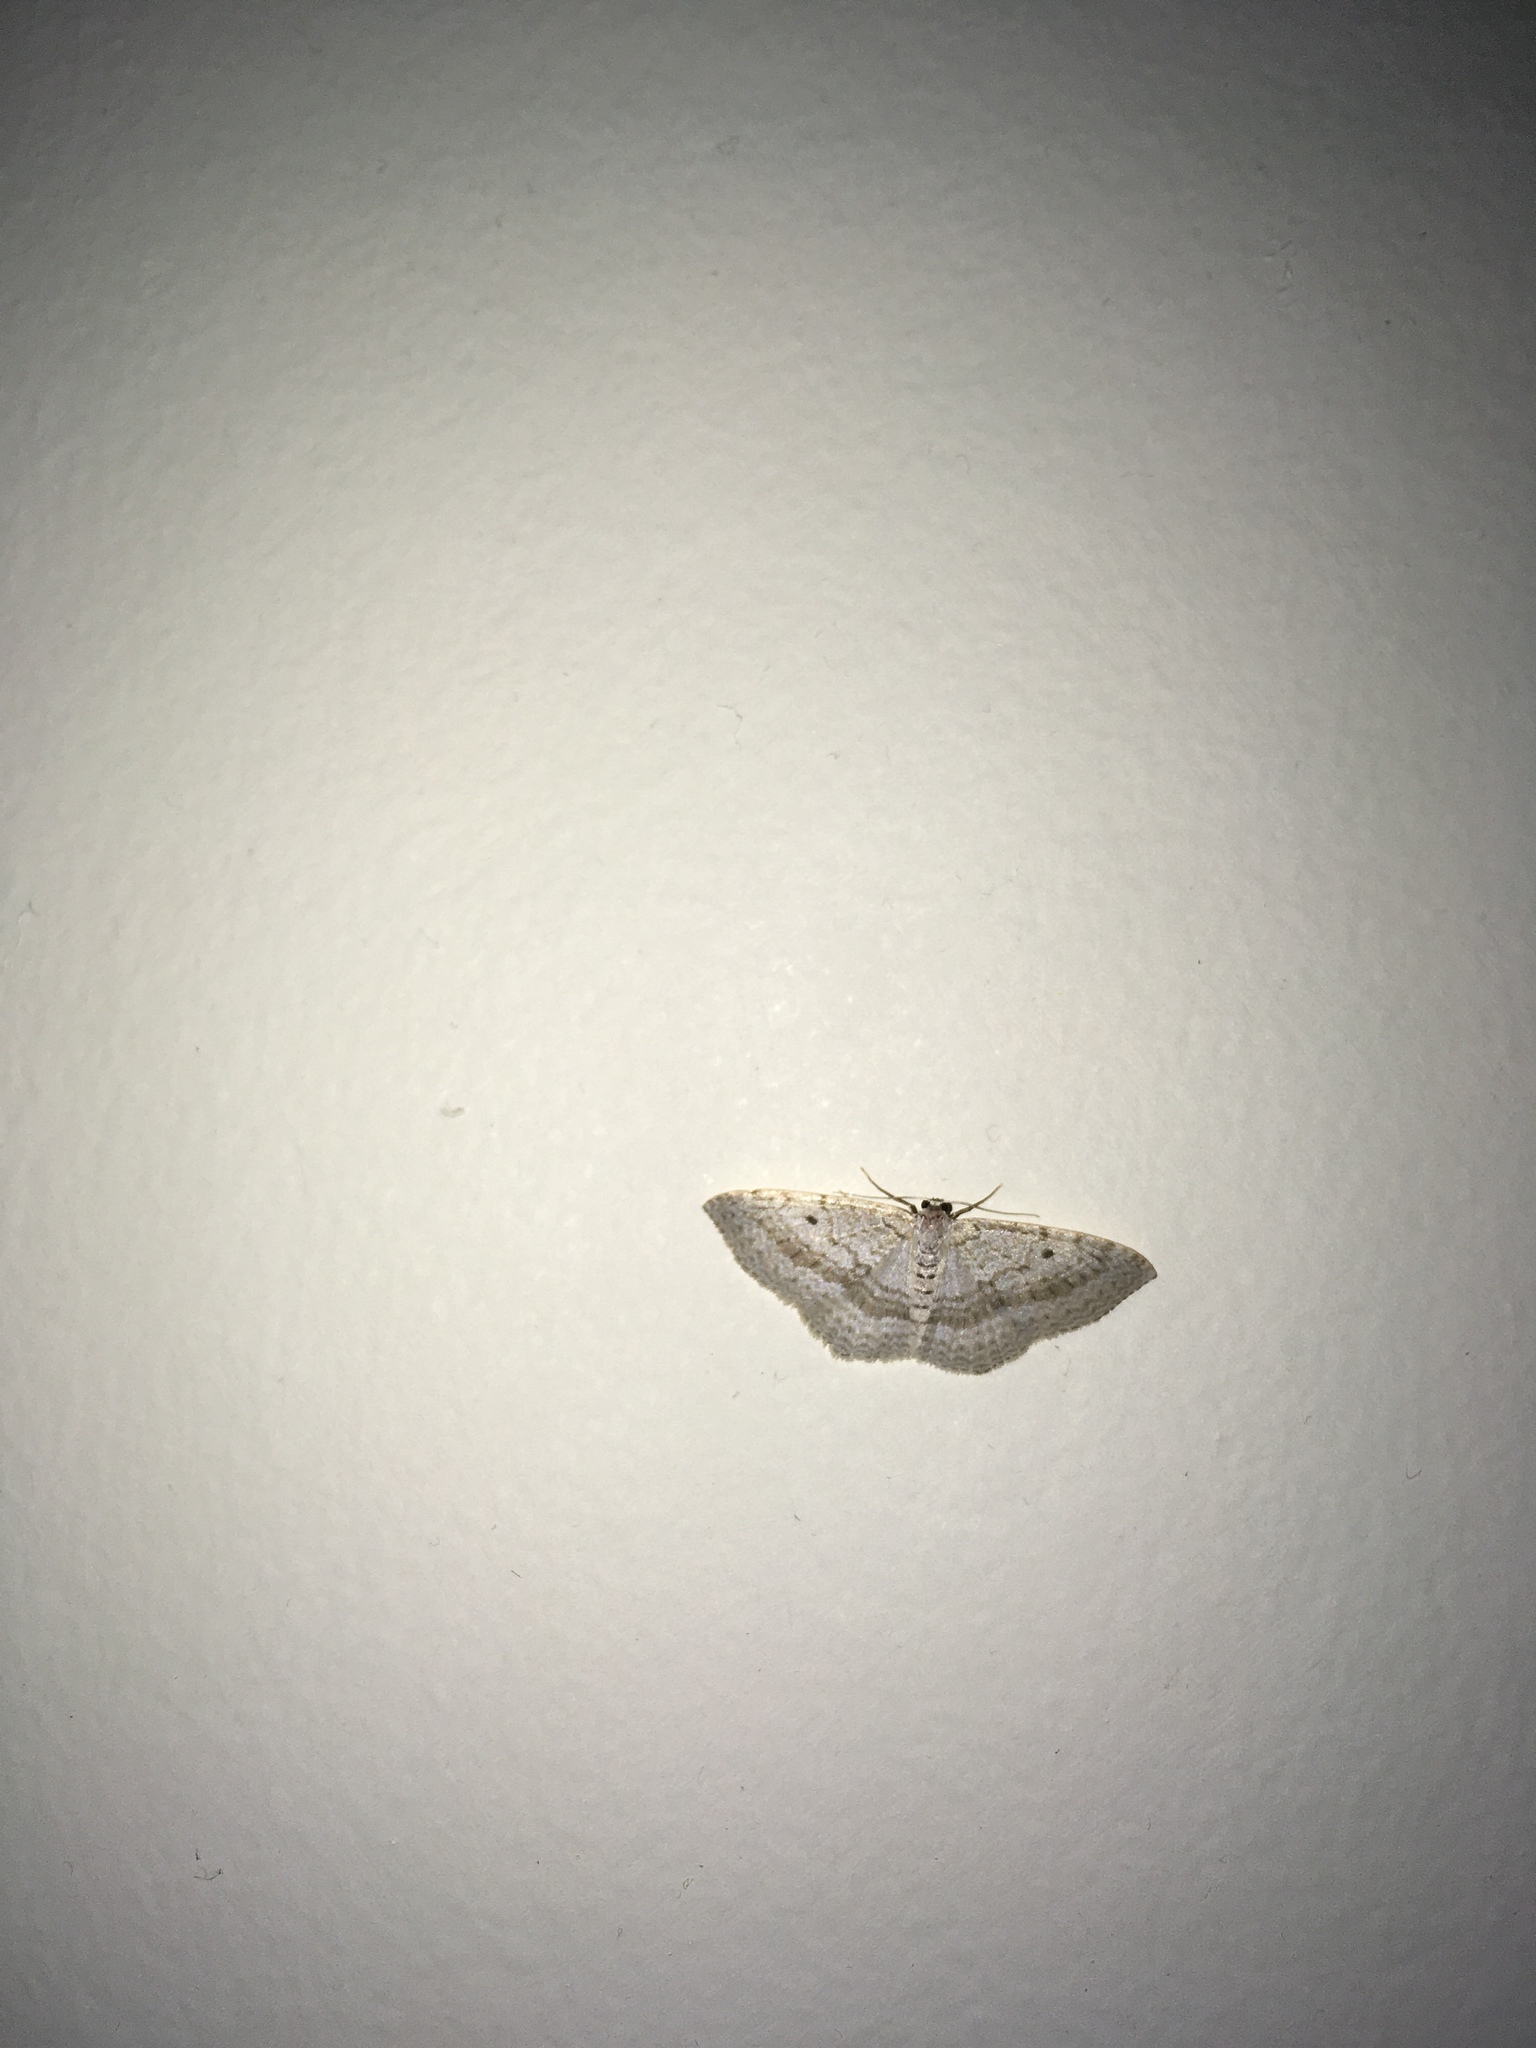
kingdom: Animalia
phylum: Arthropoda
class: Insecta
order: Lepidoptera
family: Geometridae
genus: Poecilasthena
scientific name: Poecilasthena pulchraria
